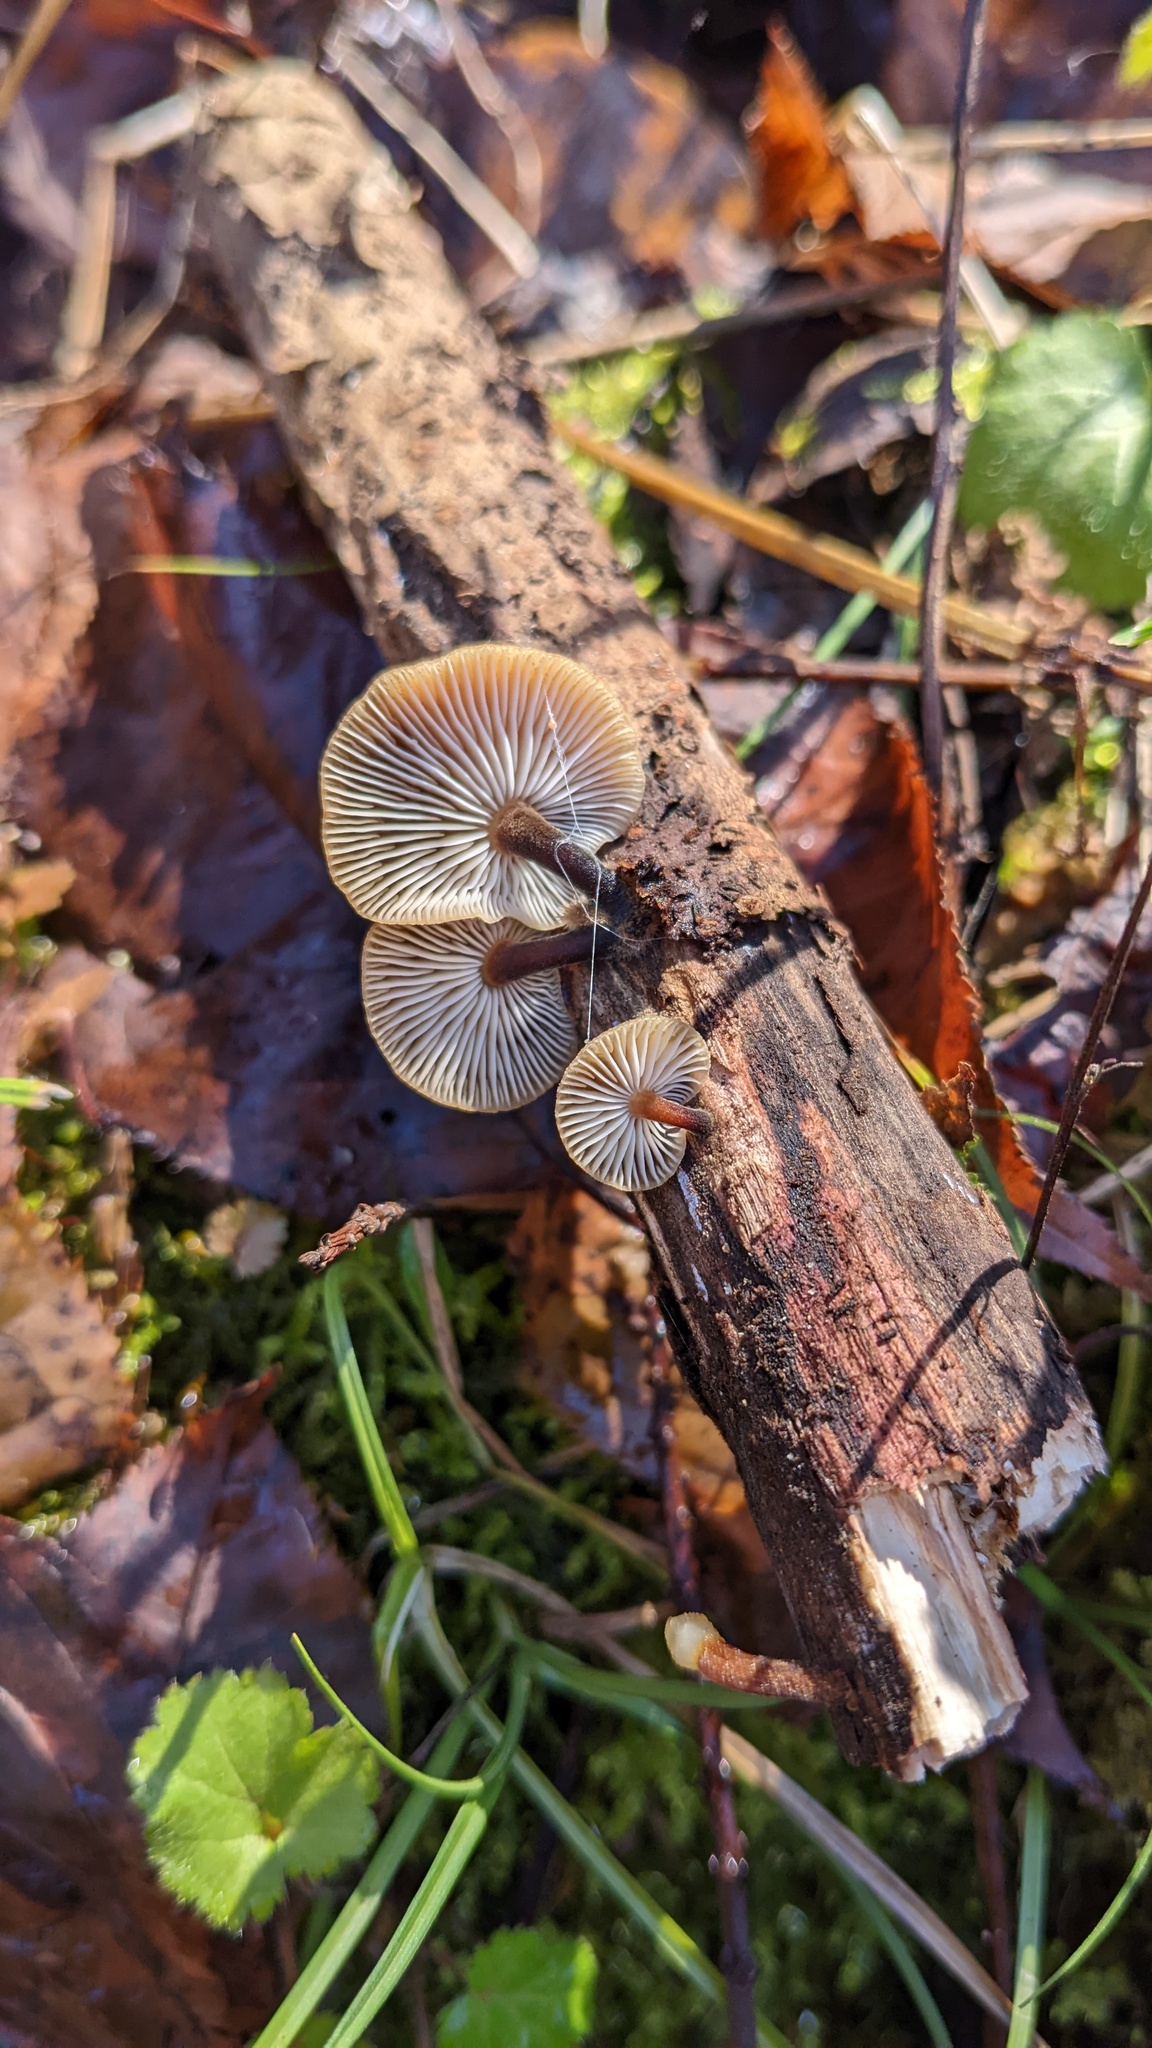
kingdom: Fungi
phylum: Basidiomycota
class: Agaricomycetes
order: Agaricales
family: Physalacriaceae
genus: Flammulina
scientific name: Flammulina velutipes
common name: Velvet shank
